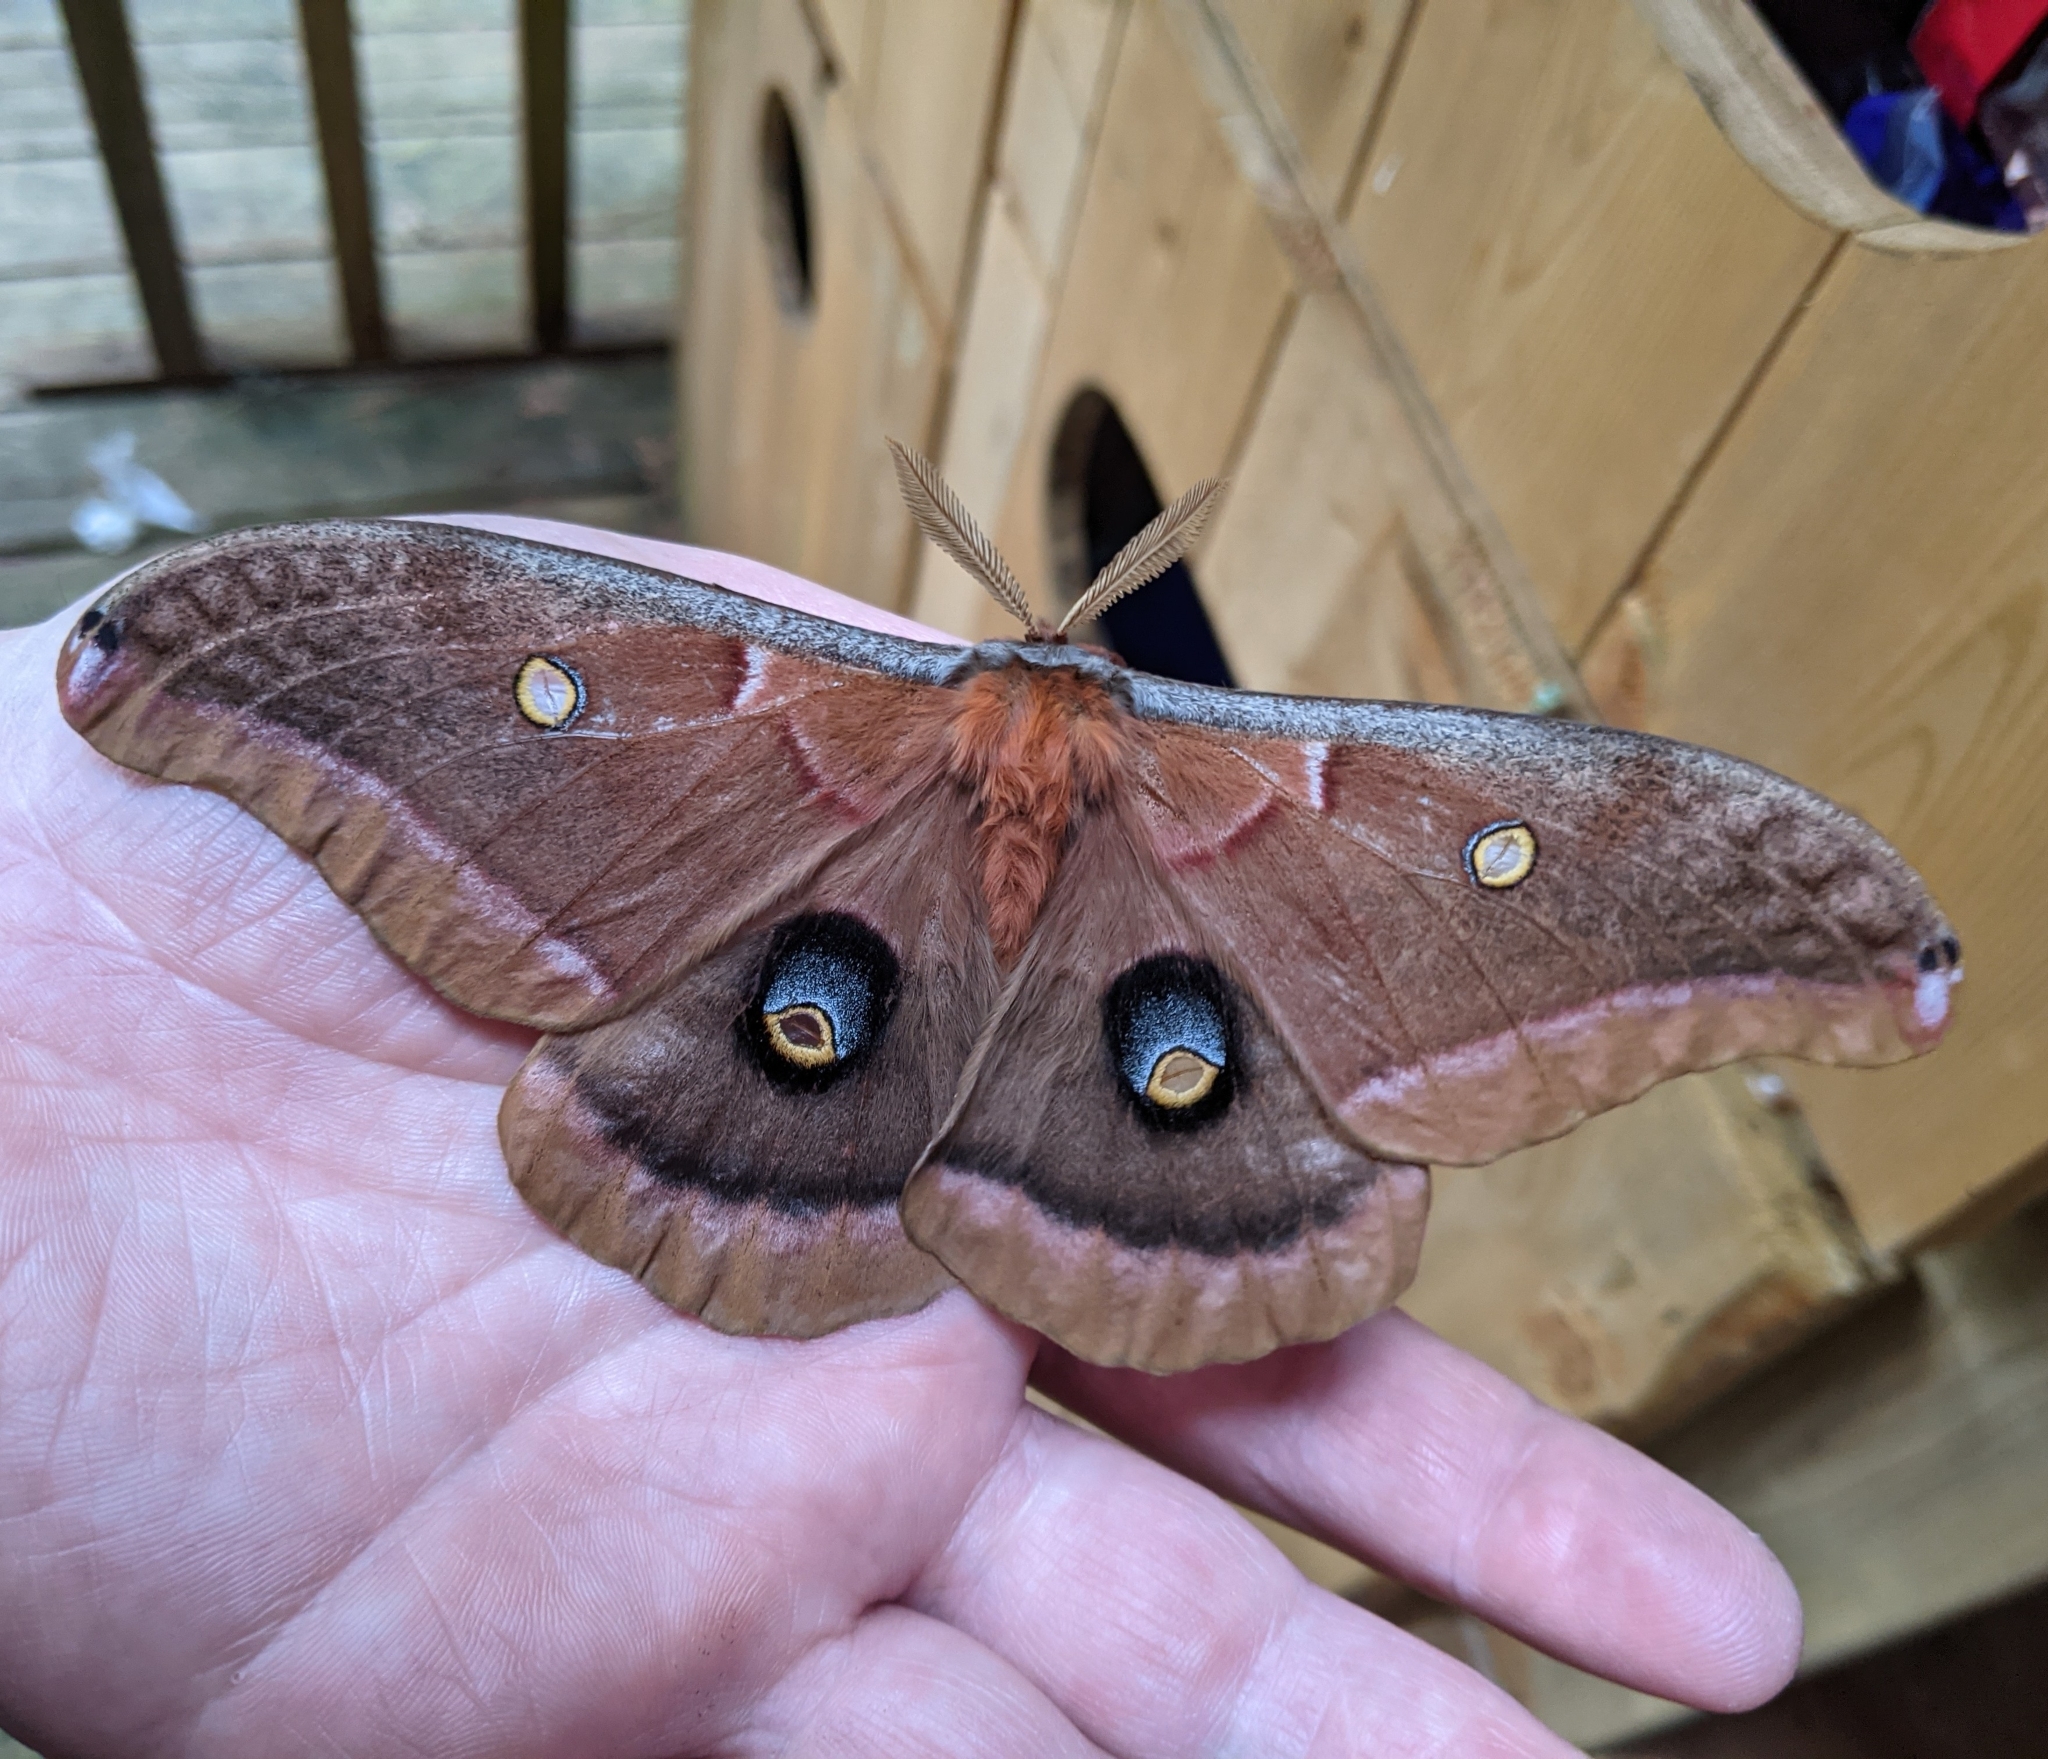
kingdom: Animalia
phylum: Arthropoda
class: Insecta
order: Lepidoptera
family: Saturniidae
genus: Antheraea
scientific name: Antheraea polyphemus
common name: Polyphemus moth
